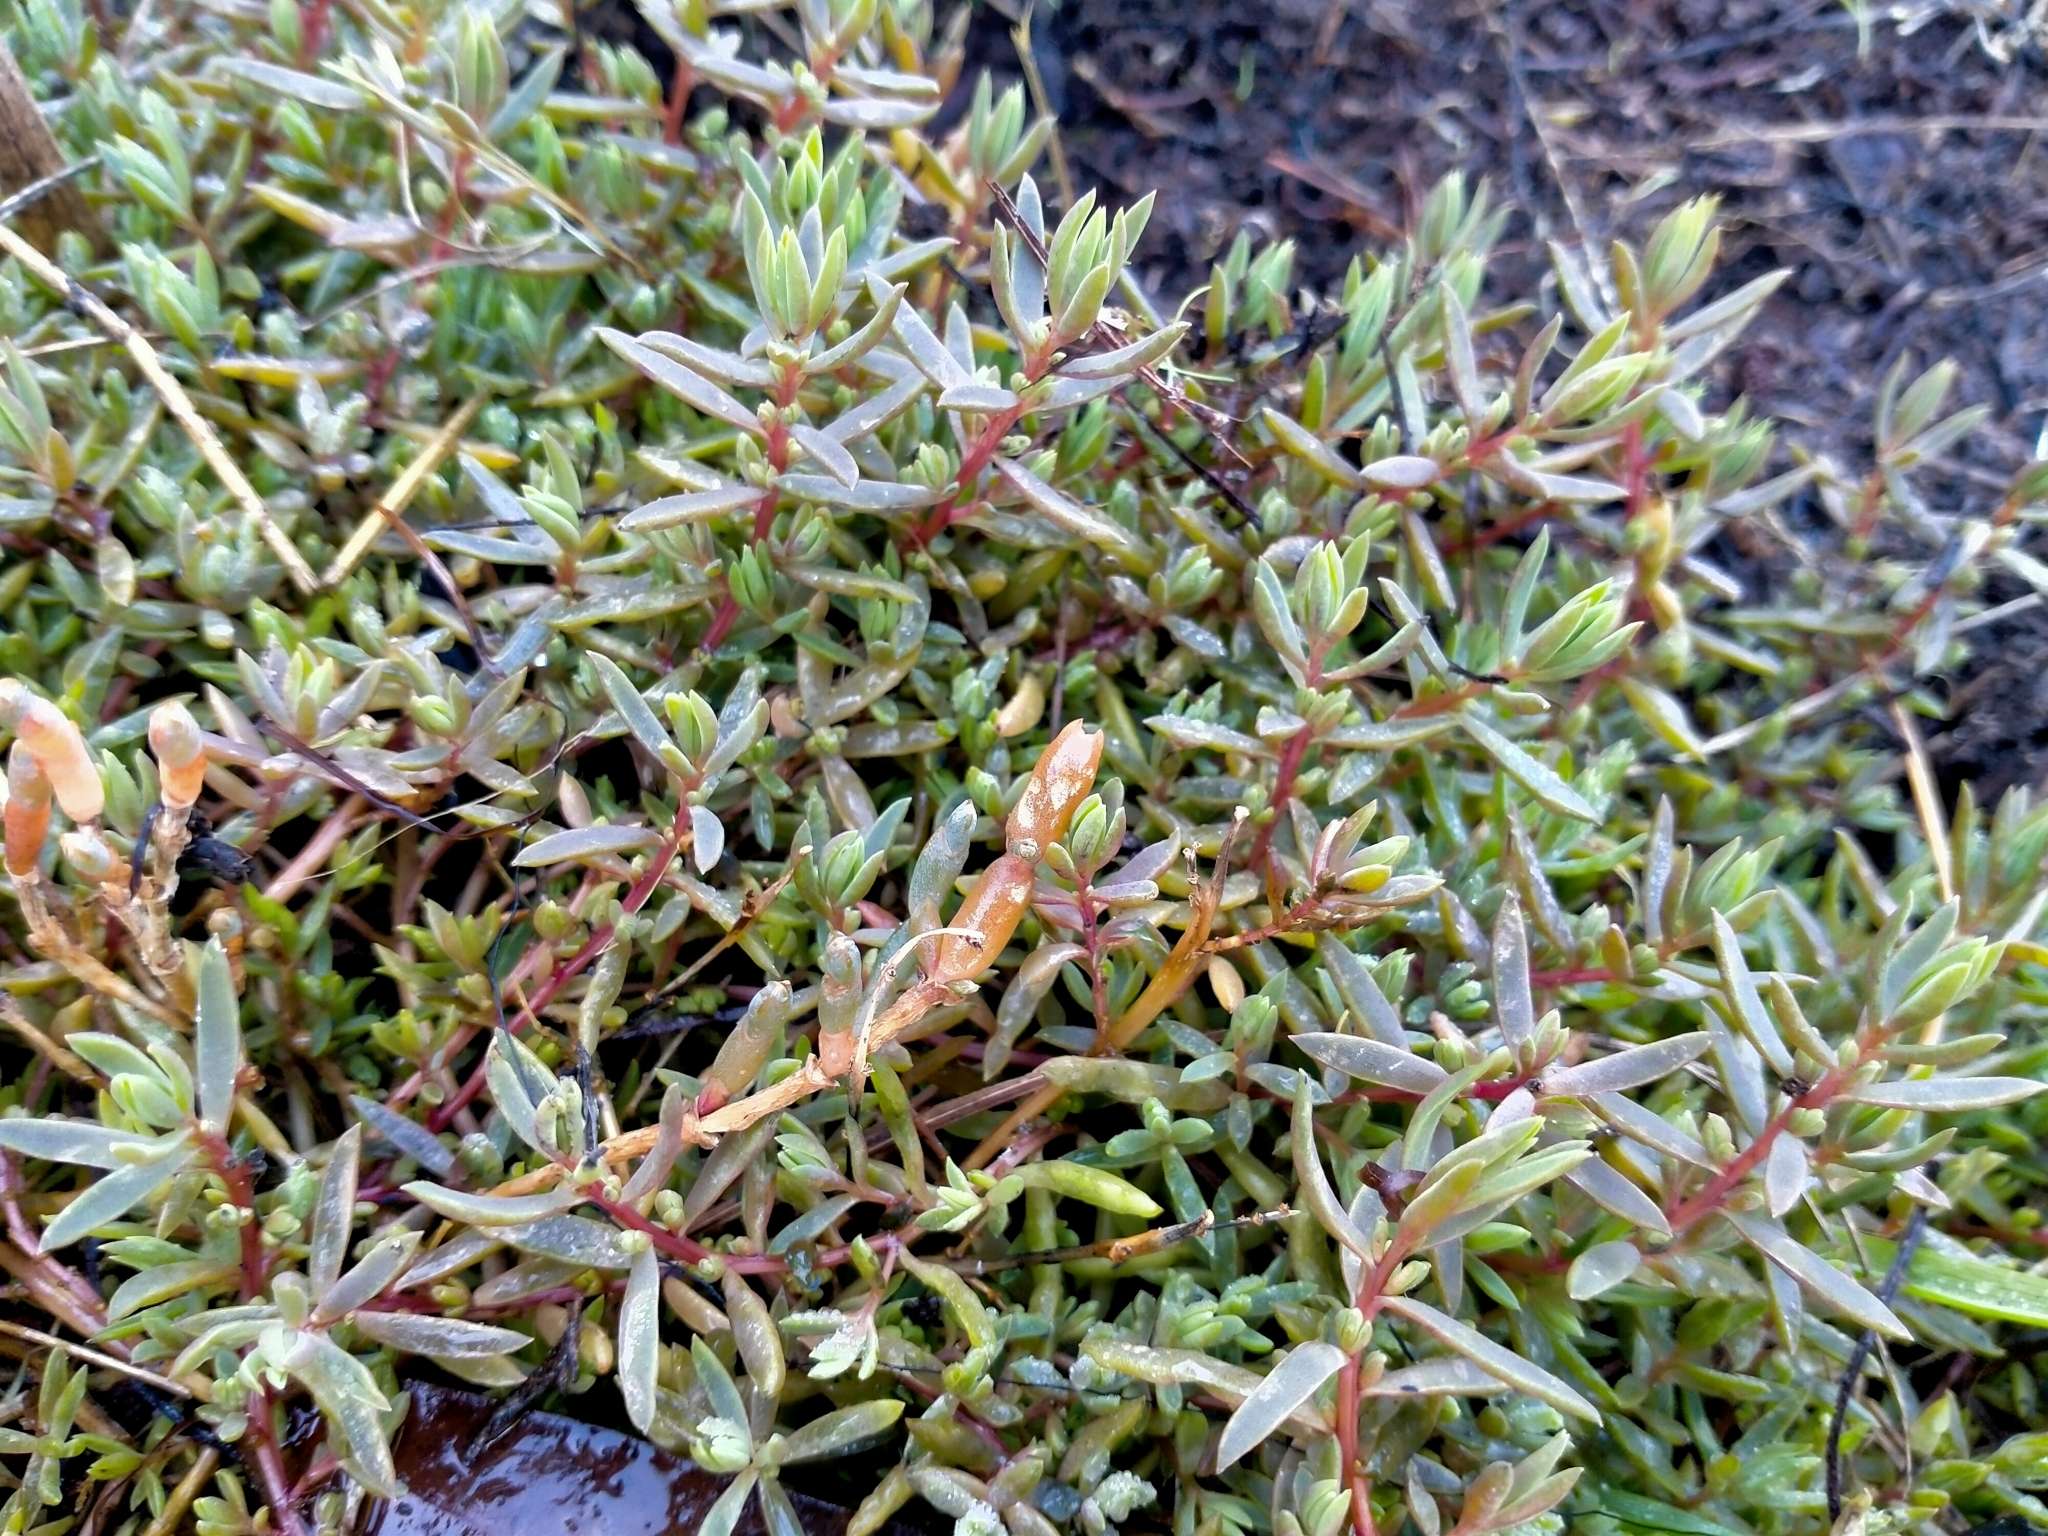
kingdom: Plantae
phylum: Tracheophyta
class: Magnoliopsida
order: Caryophyllales
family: Amaranthaceae
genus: Suaeda
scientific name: Suaeda novae-zelandiae
